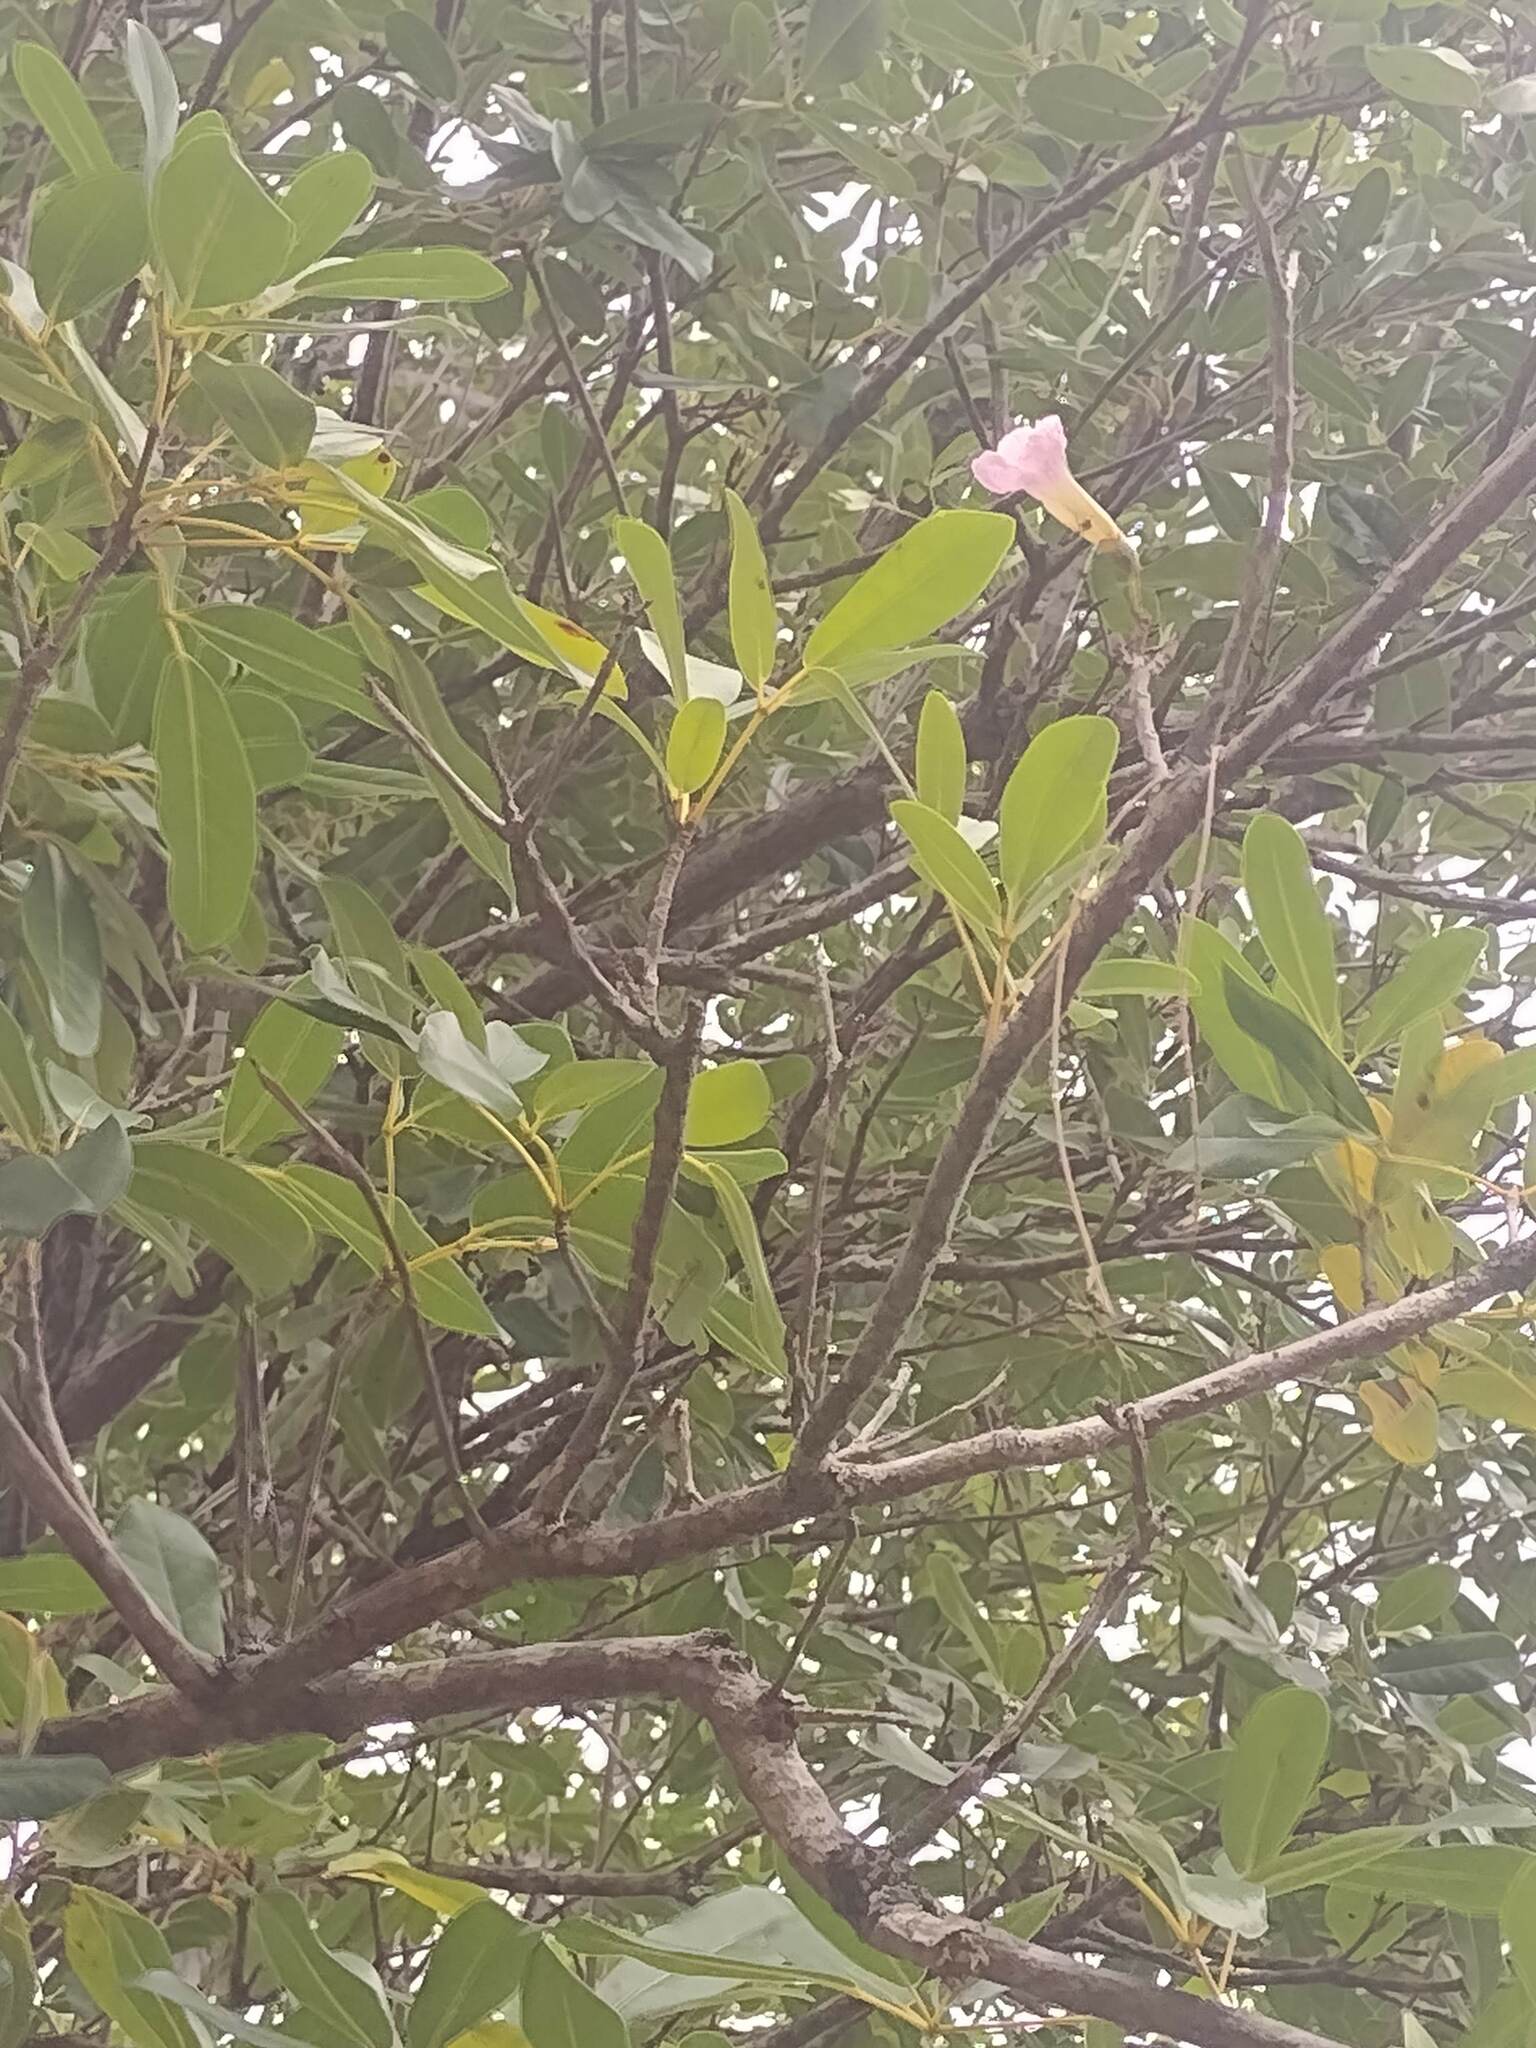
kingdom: Plantae
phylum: Tracheophyta
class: Magnoliopsida
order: Lamiales
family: Bignoniaceae
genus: Tabebuia
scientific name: Tabebuia heterophylla
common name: White cedar
